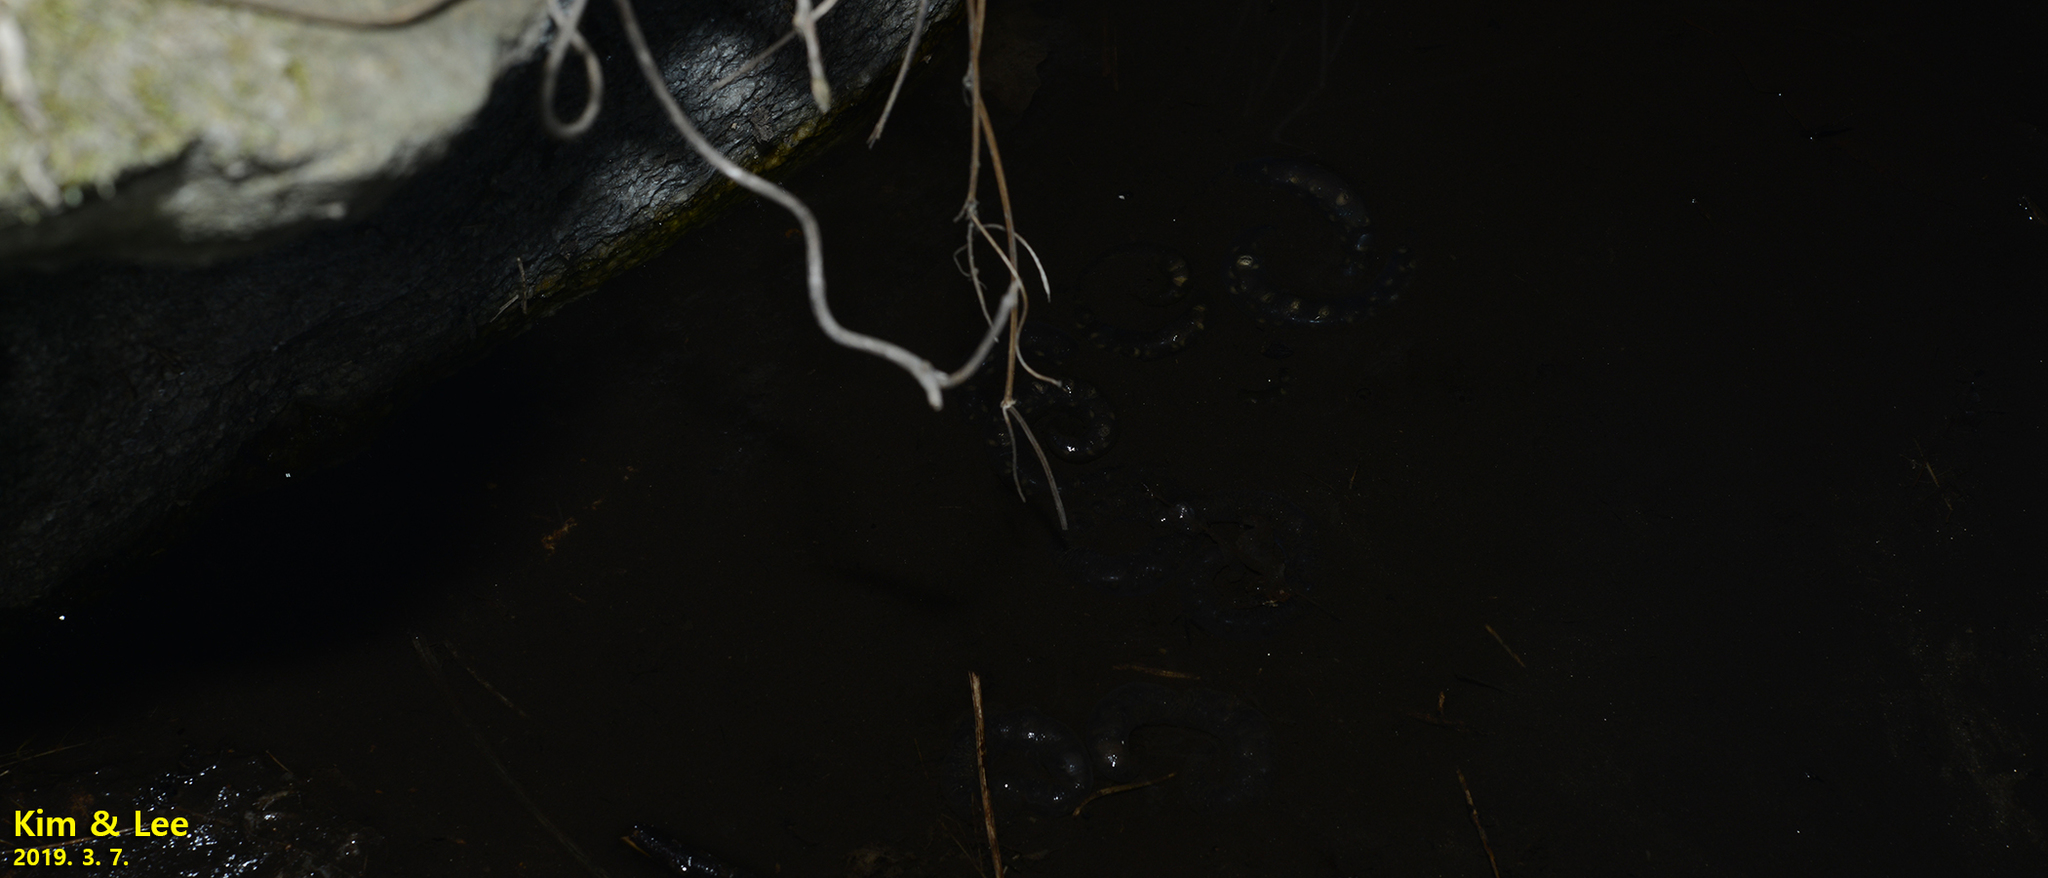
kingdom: Animalia
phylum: Chordata
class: Amphibia
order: Caudata
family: Hynobiidae
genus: Hynobius
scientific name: Hynobius leechii
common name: Gensan salamander
